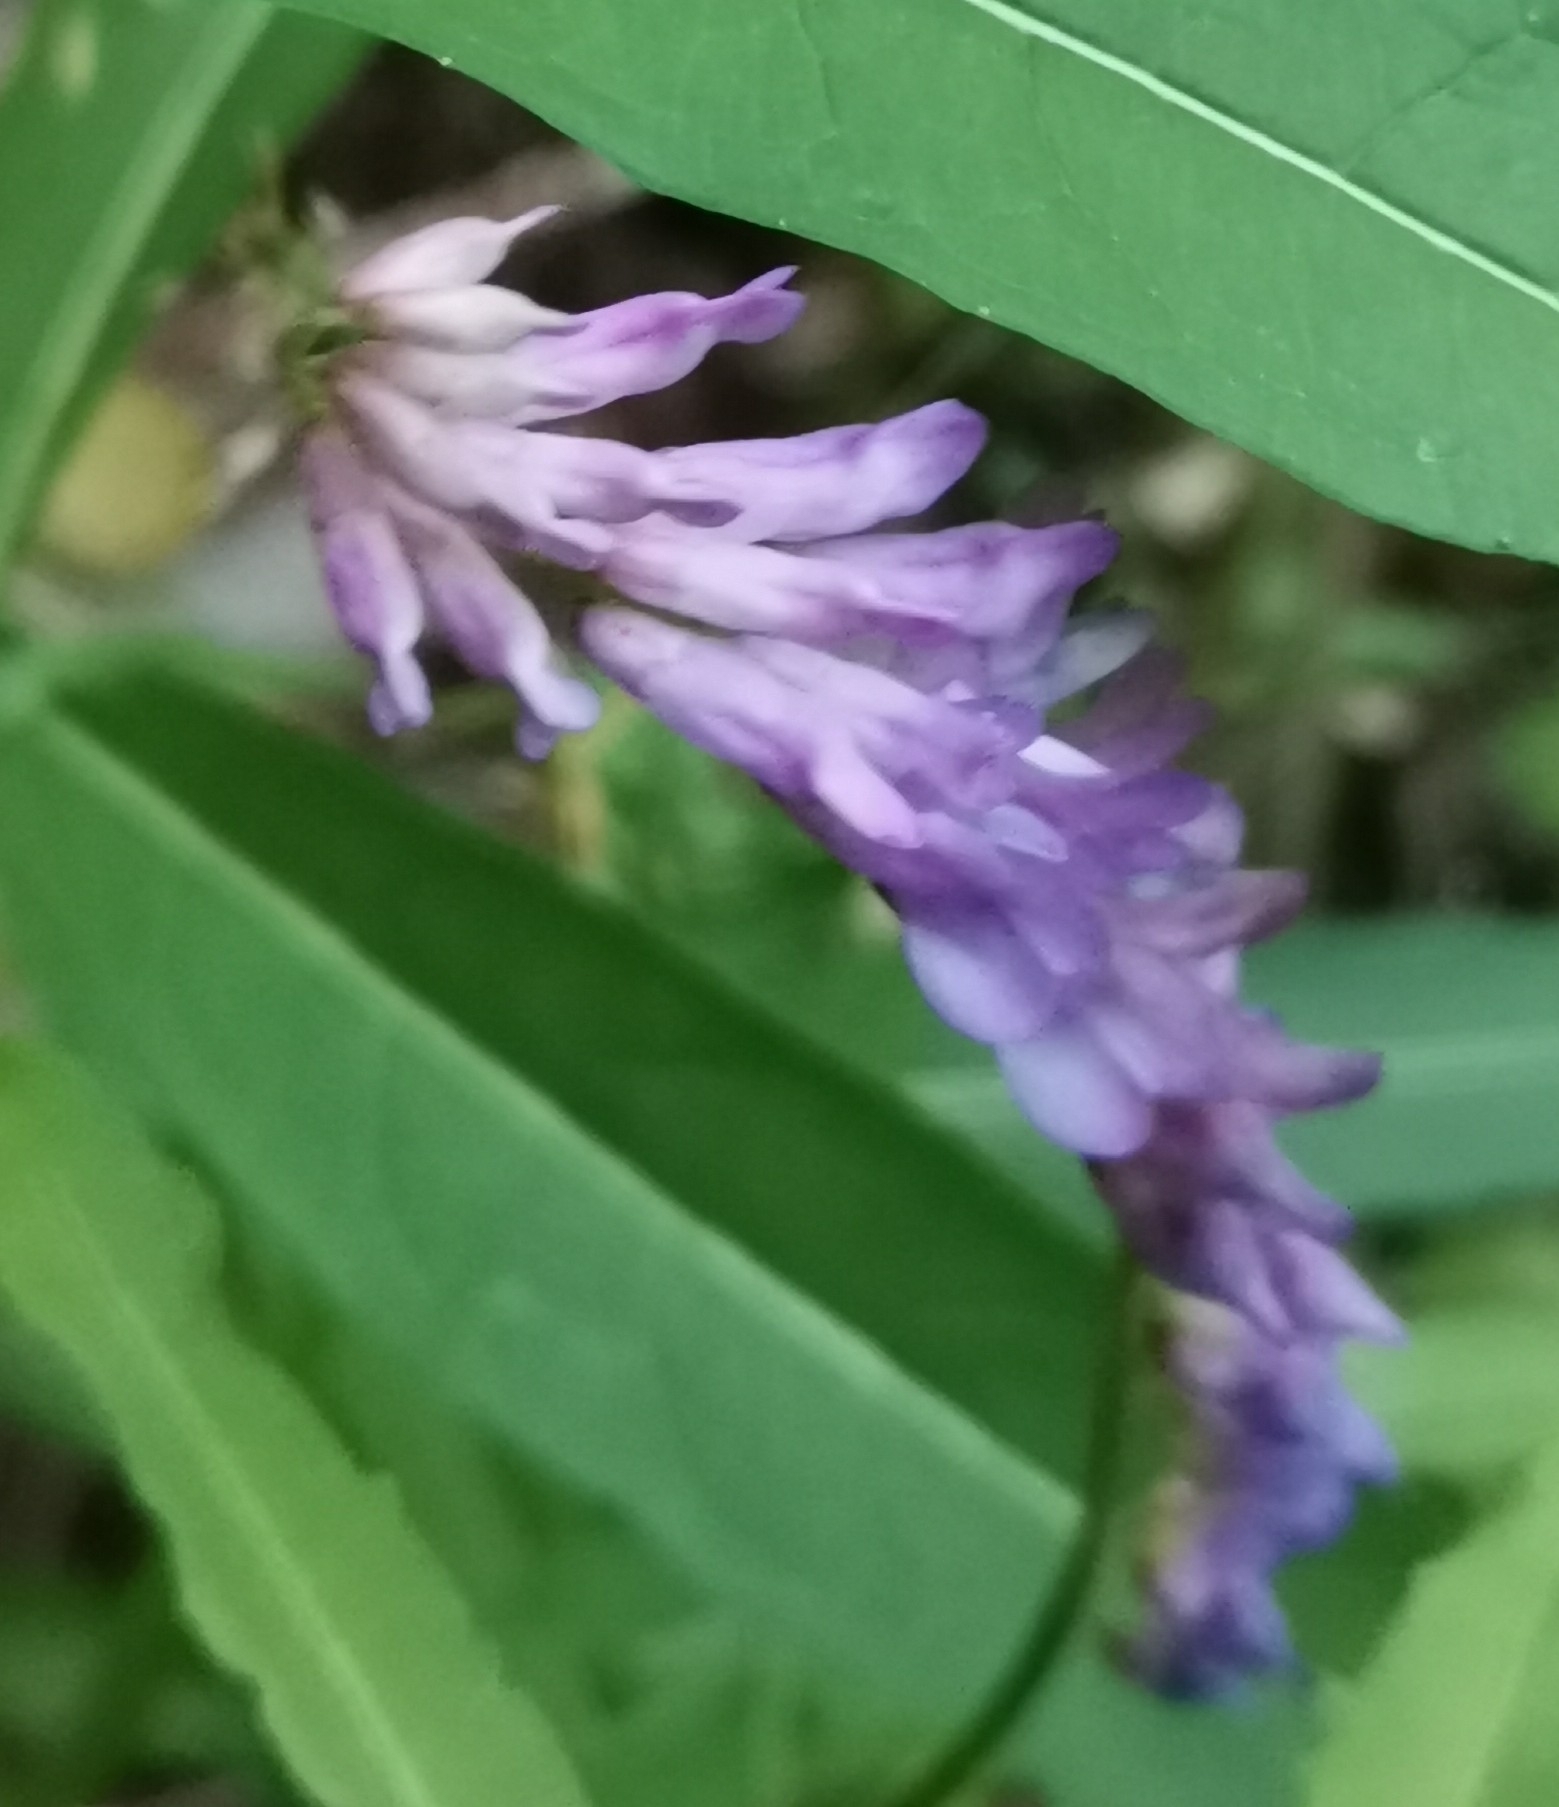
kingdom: Plantae
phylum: Tracheophyta
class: Magnoliopsida
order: Fabales
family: Fabaceae
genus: Vicia
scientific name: Vicia cracca
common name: Bird vetch
